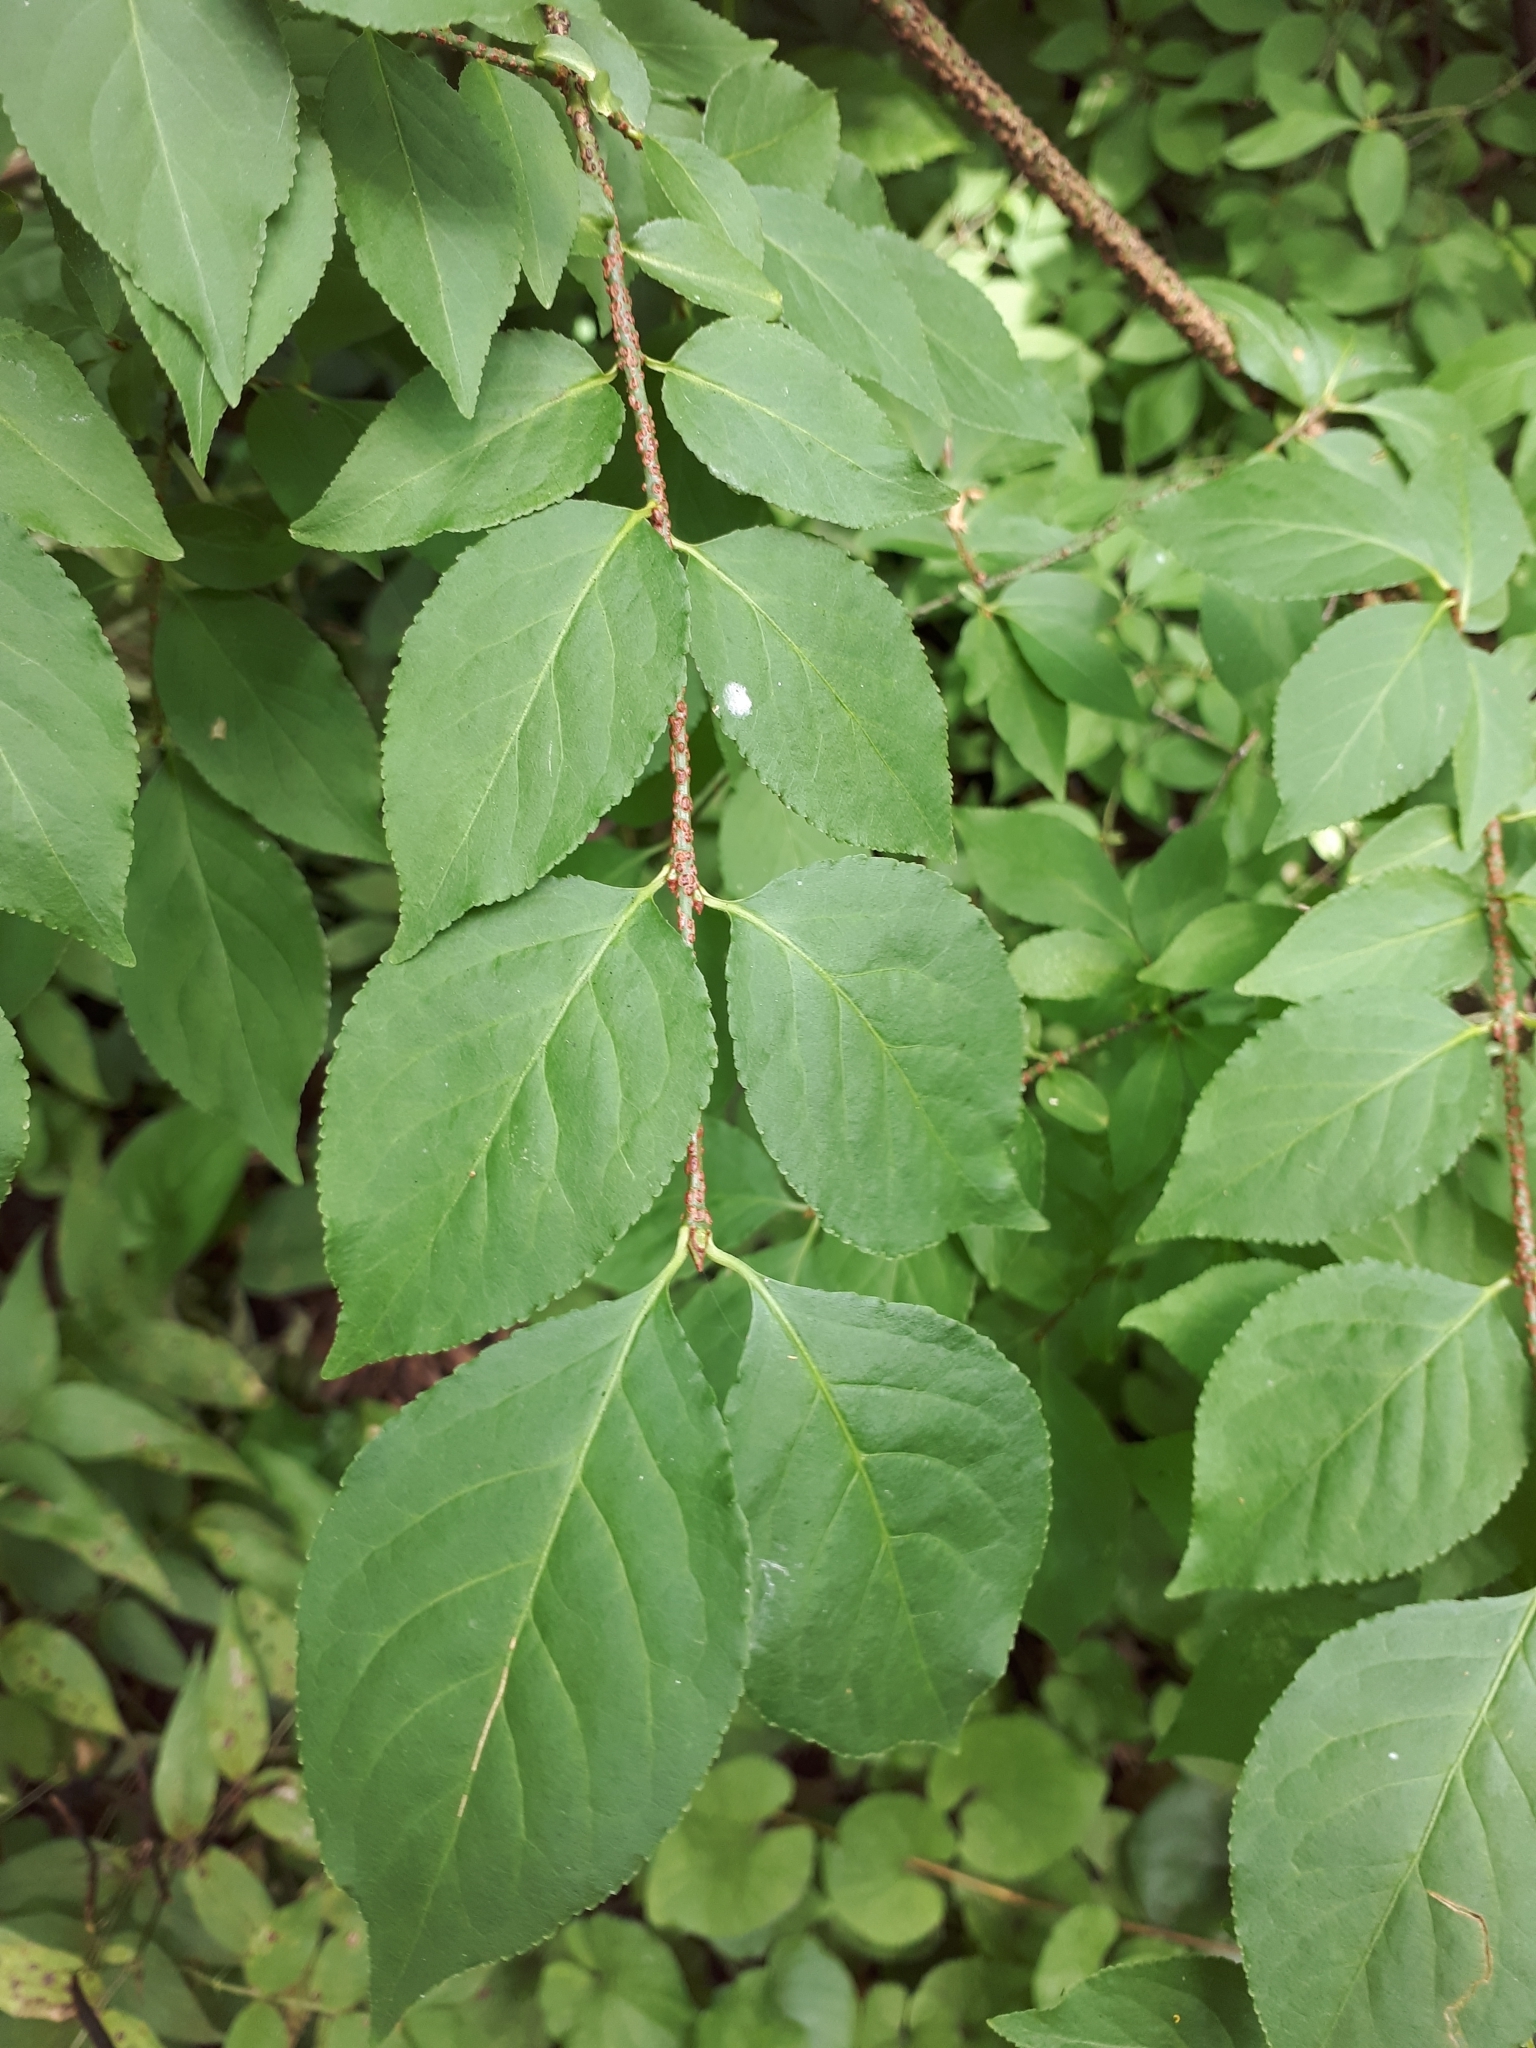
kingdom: Plantae
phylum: Tracheophyta
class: Magnoliopsida
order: Celastrales
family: Celastraceae
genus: Euonymus
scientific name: Euonymus verrucosus
